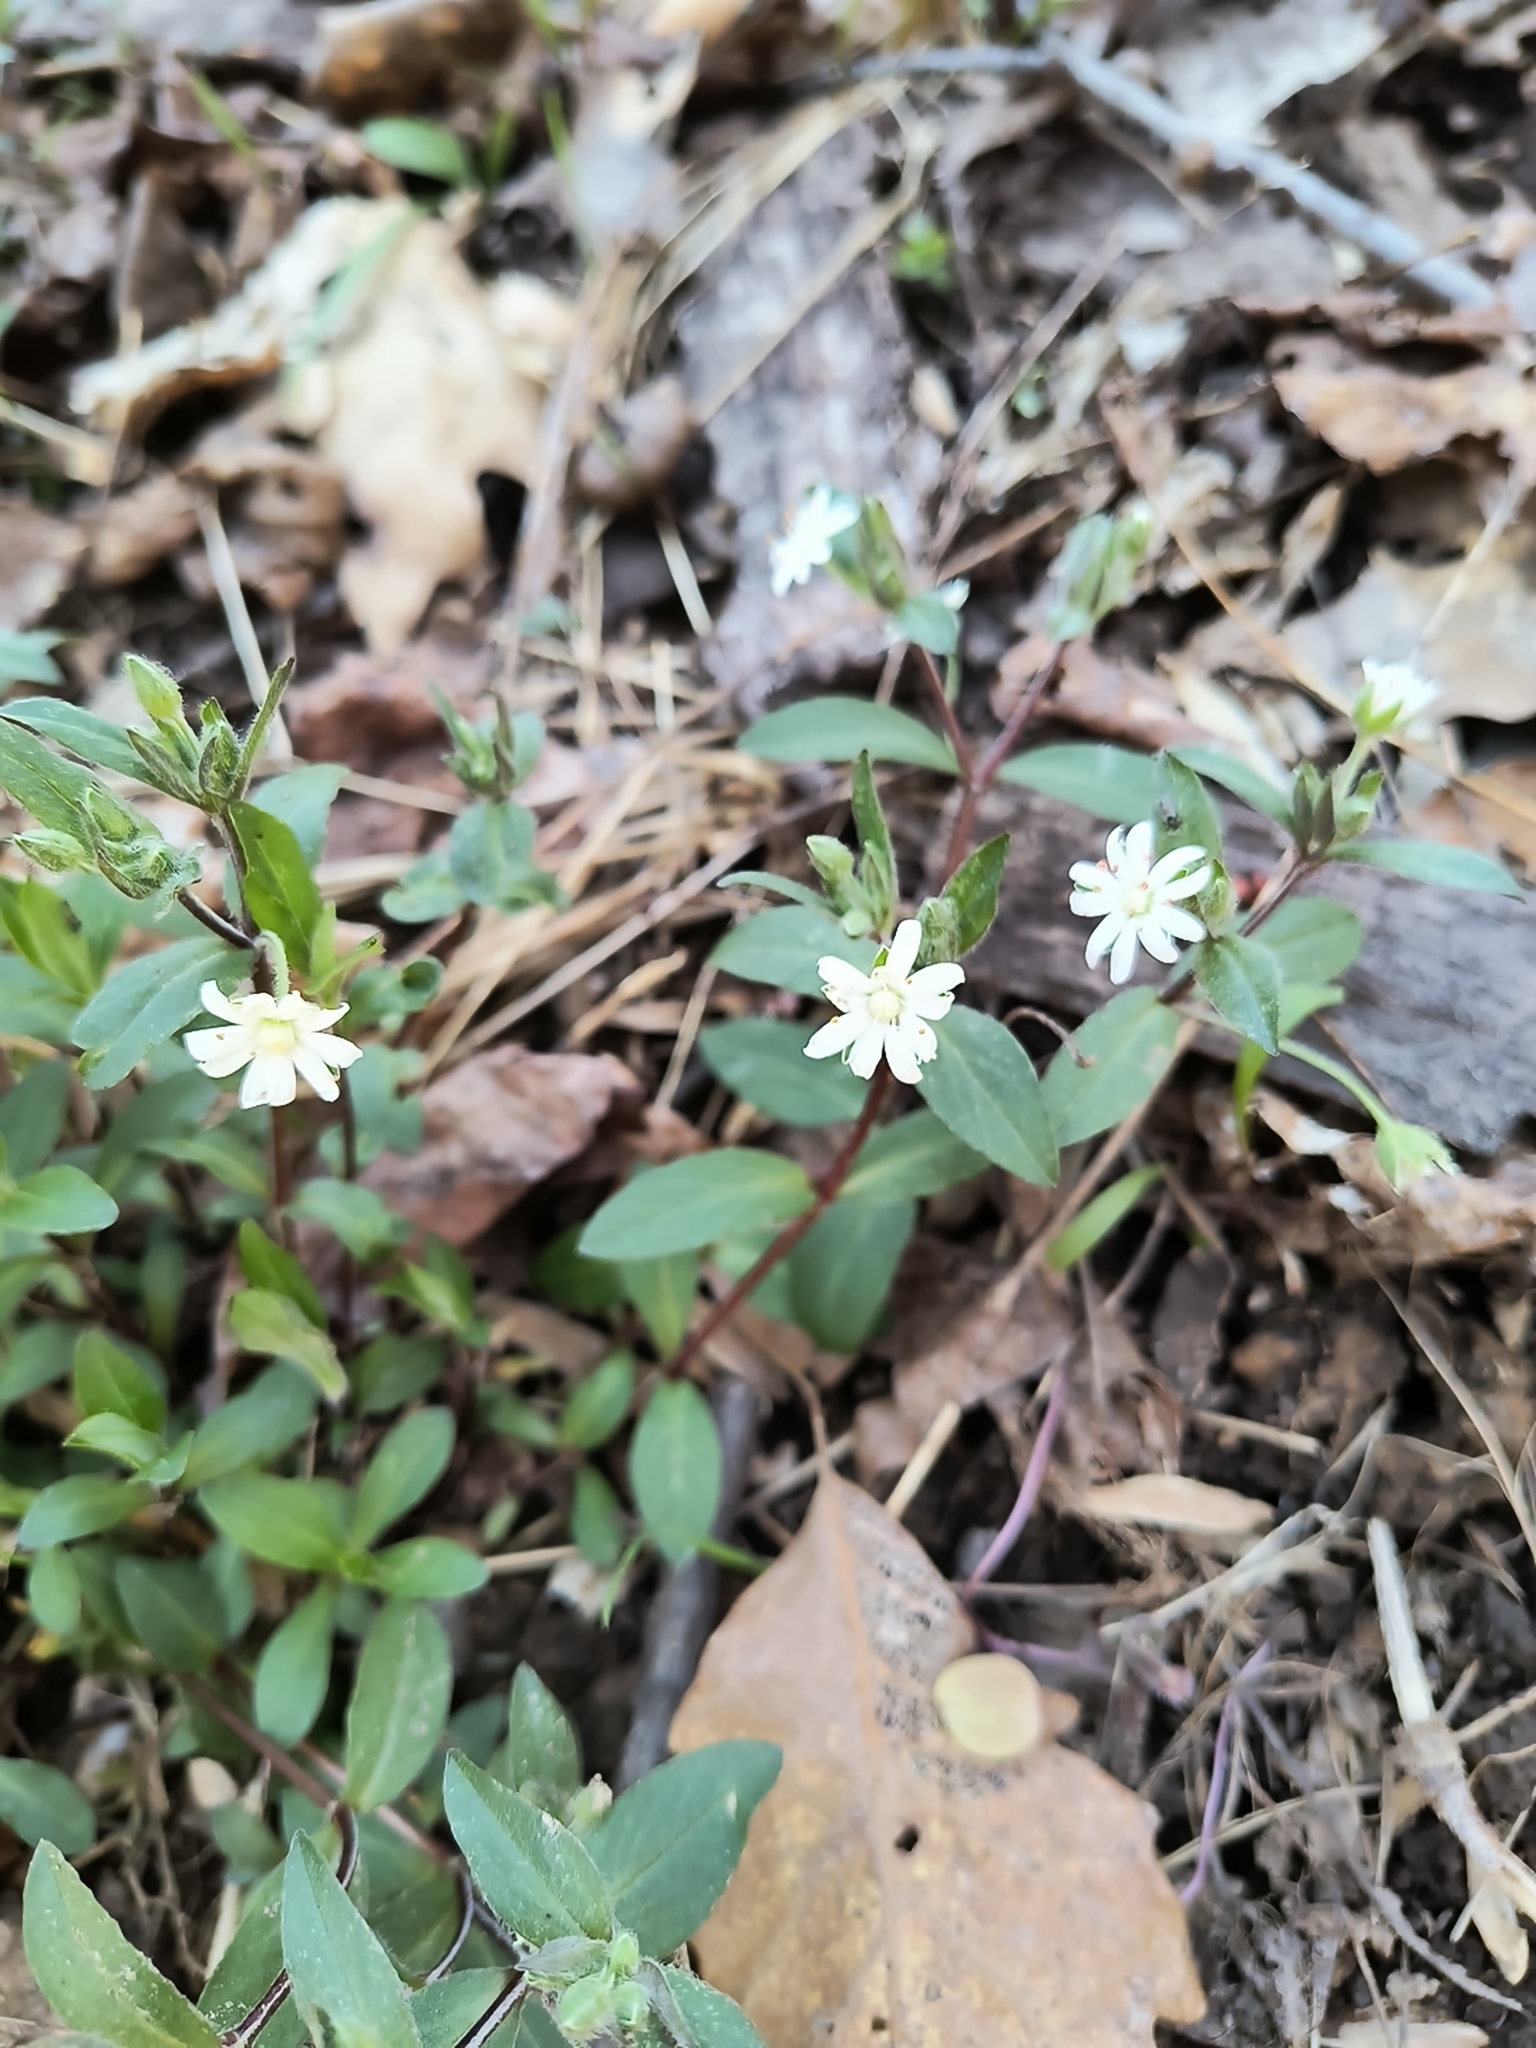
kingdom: Plantae
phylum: Tracheophyta
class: Magnoliopsida
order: Caryophyllales
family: Caryophyllaceae
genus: Stellaria
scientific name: Stellaria pubera
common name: Star chickweed
